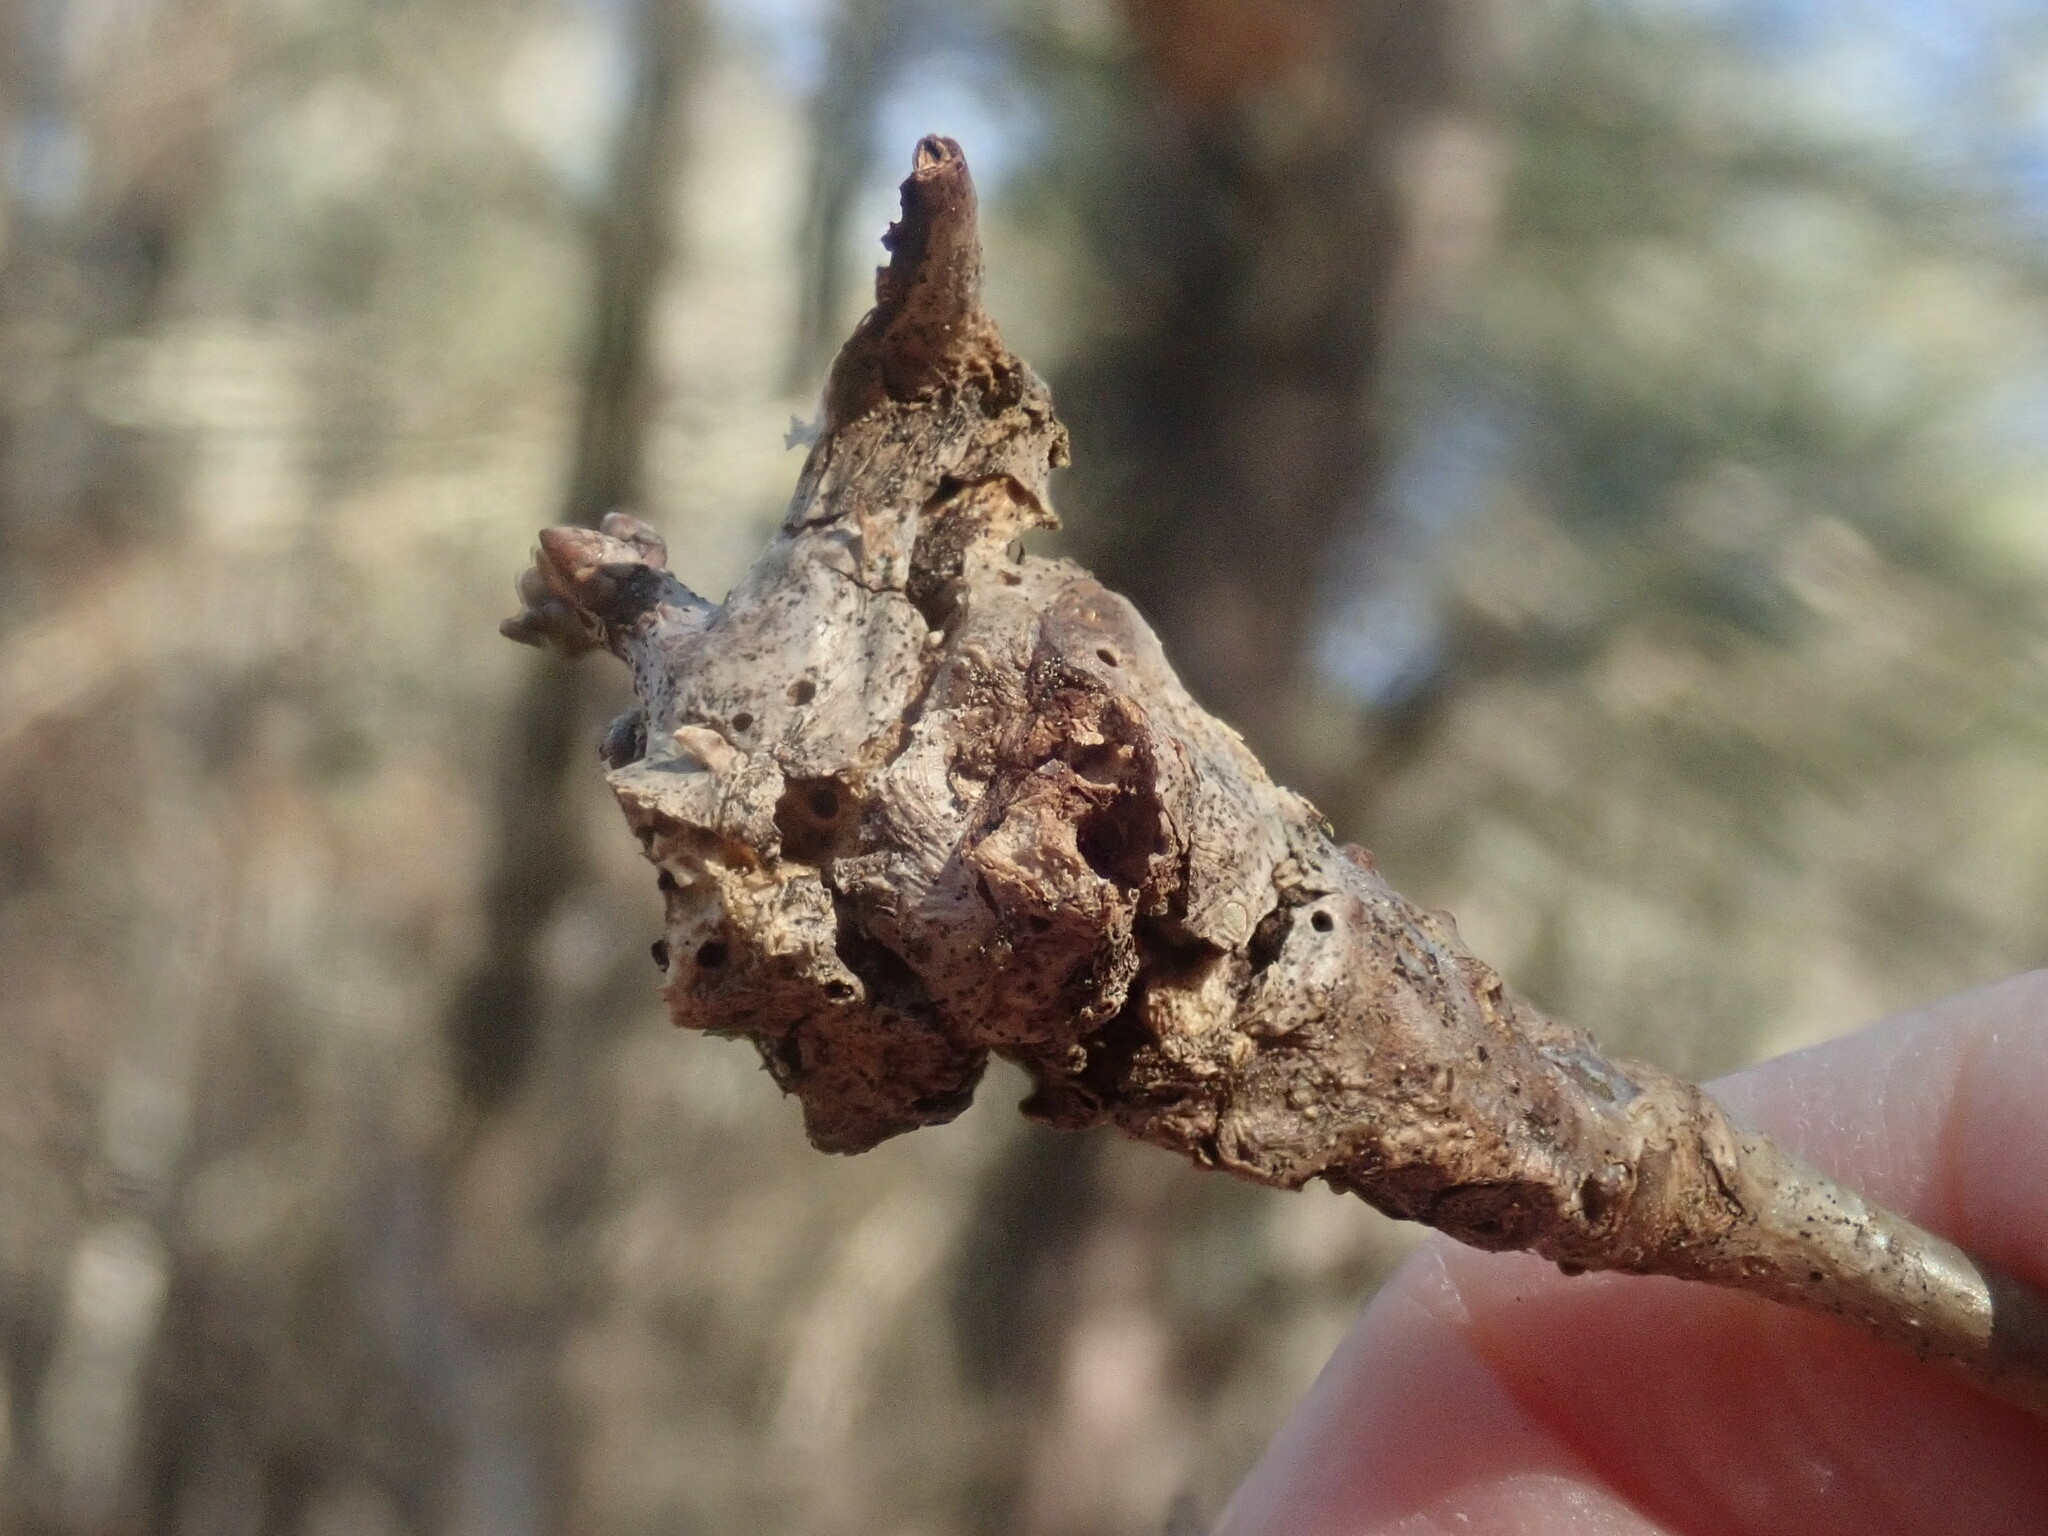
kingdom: Animalia
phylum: Arthropoda
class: Insecta
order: Hymenoptera
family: Cynipidae
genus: Neuroterus
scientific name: Neuroterus quercusbaccarum
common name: Common spangle gall
